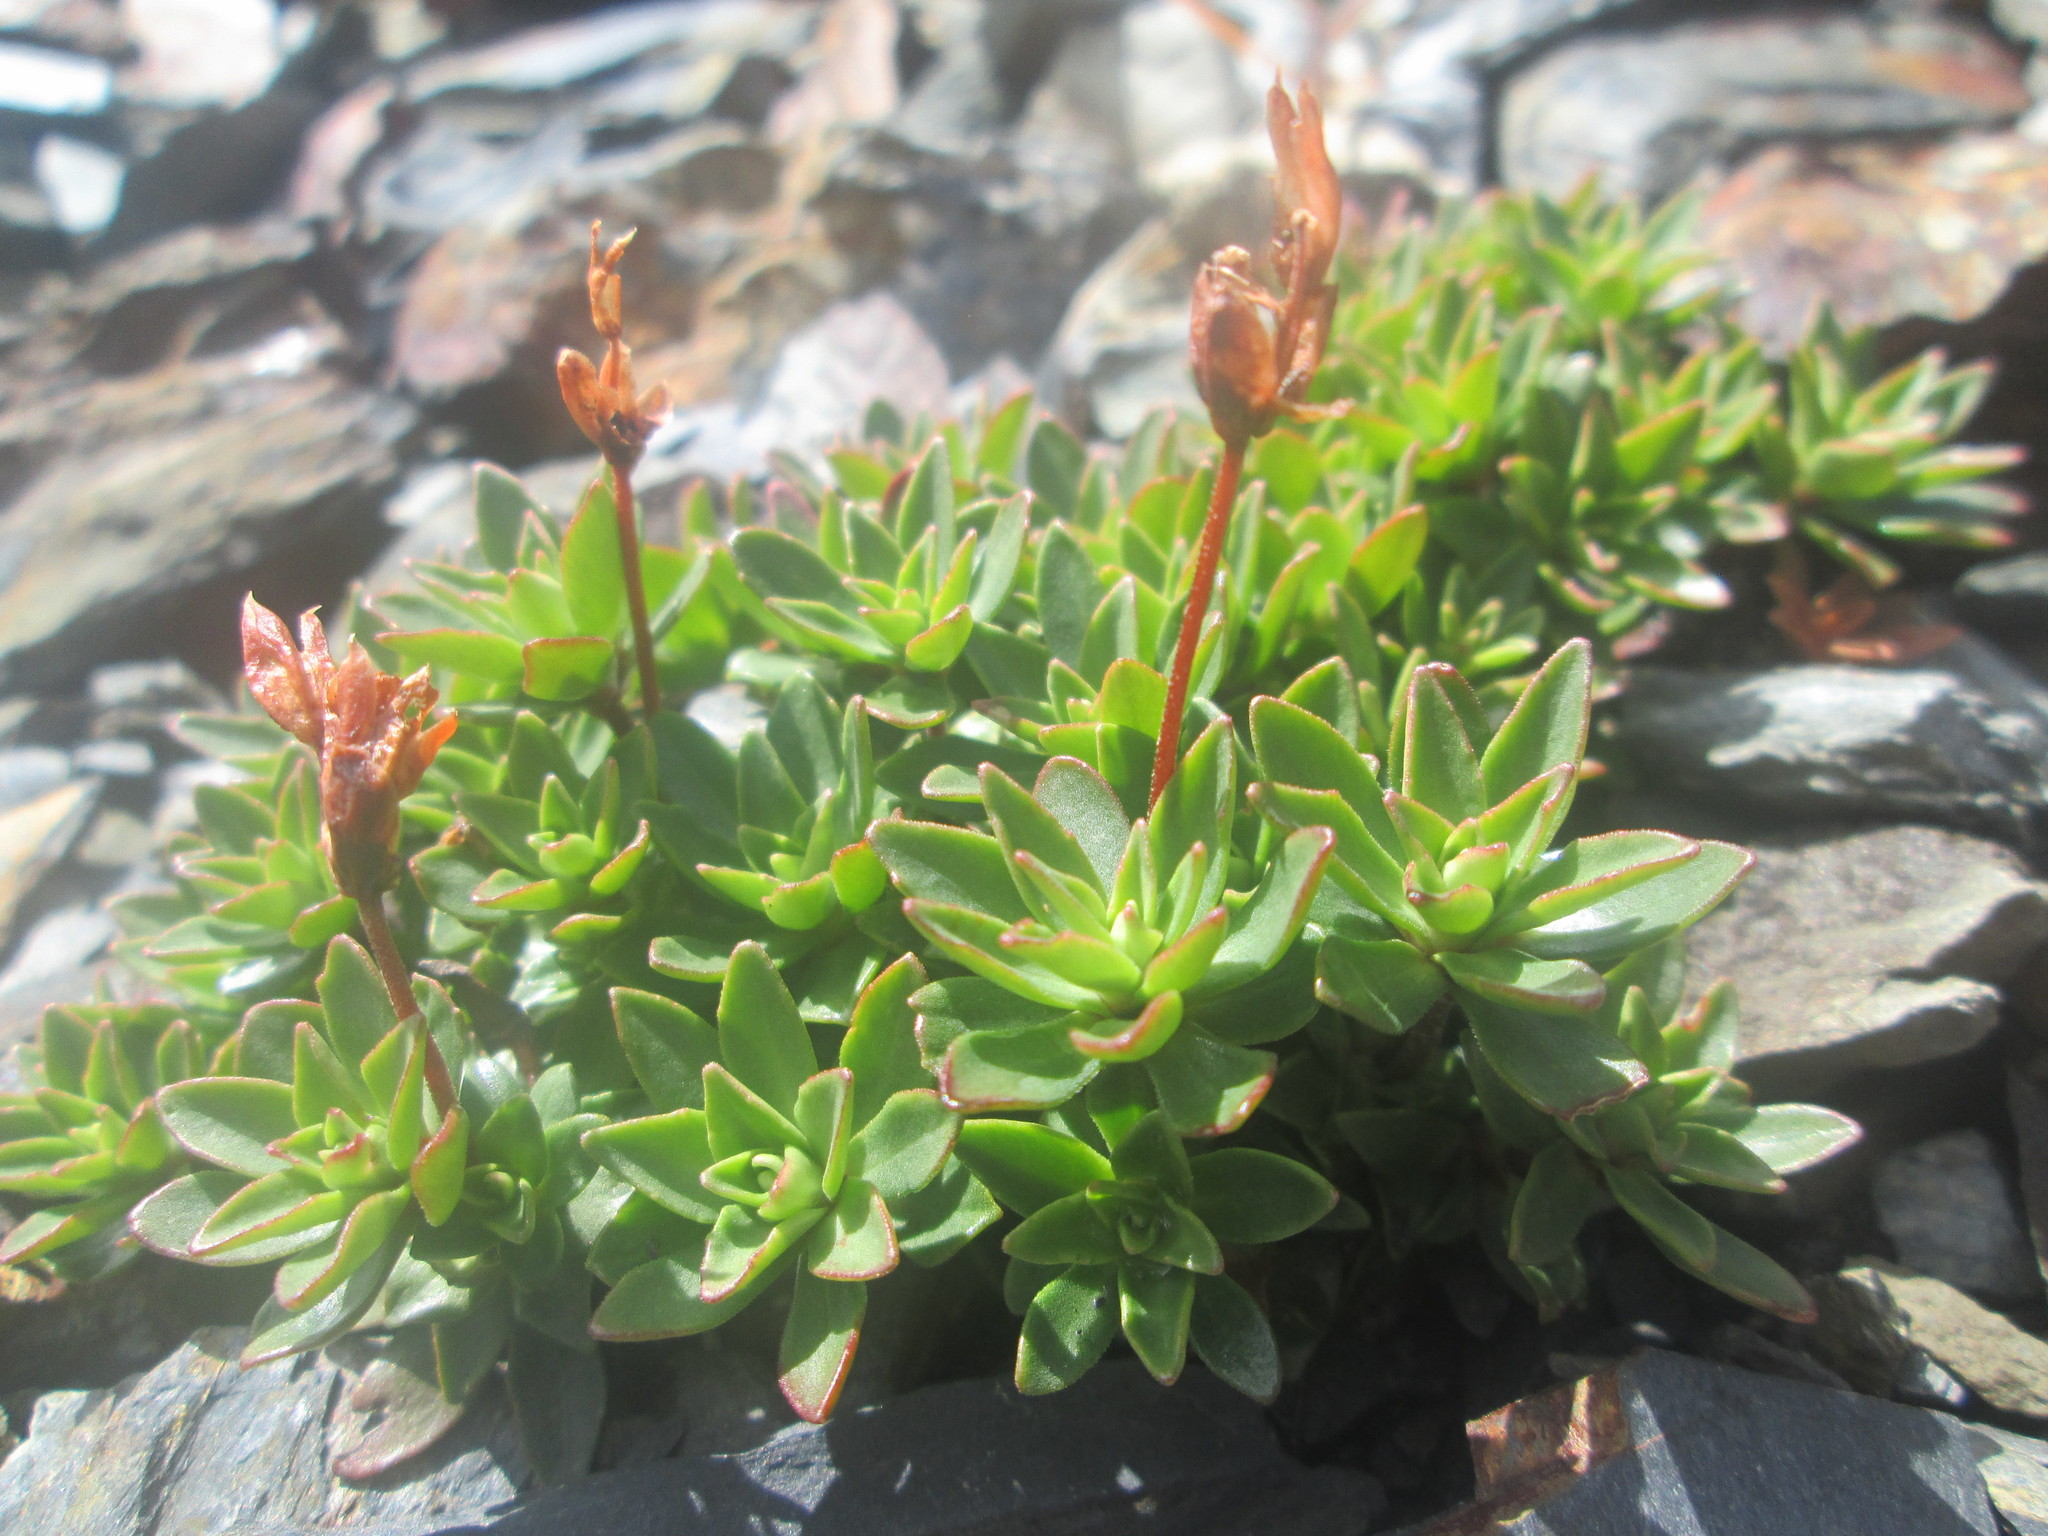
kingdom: Plantae
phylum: Tracheophyta
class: Magnoliopsida
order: Ericales
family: Primulaceae
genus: Androsace
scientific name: Androsace laevigata
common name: Cliff dwarf-primrose
